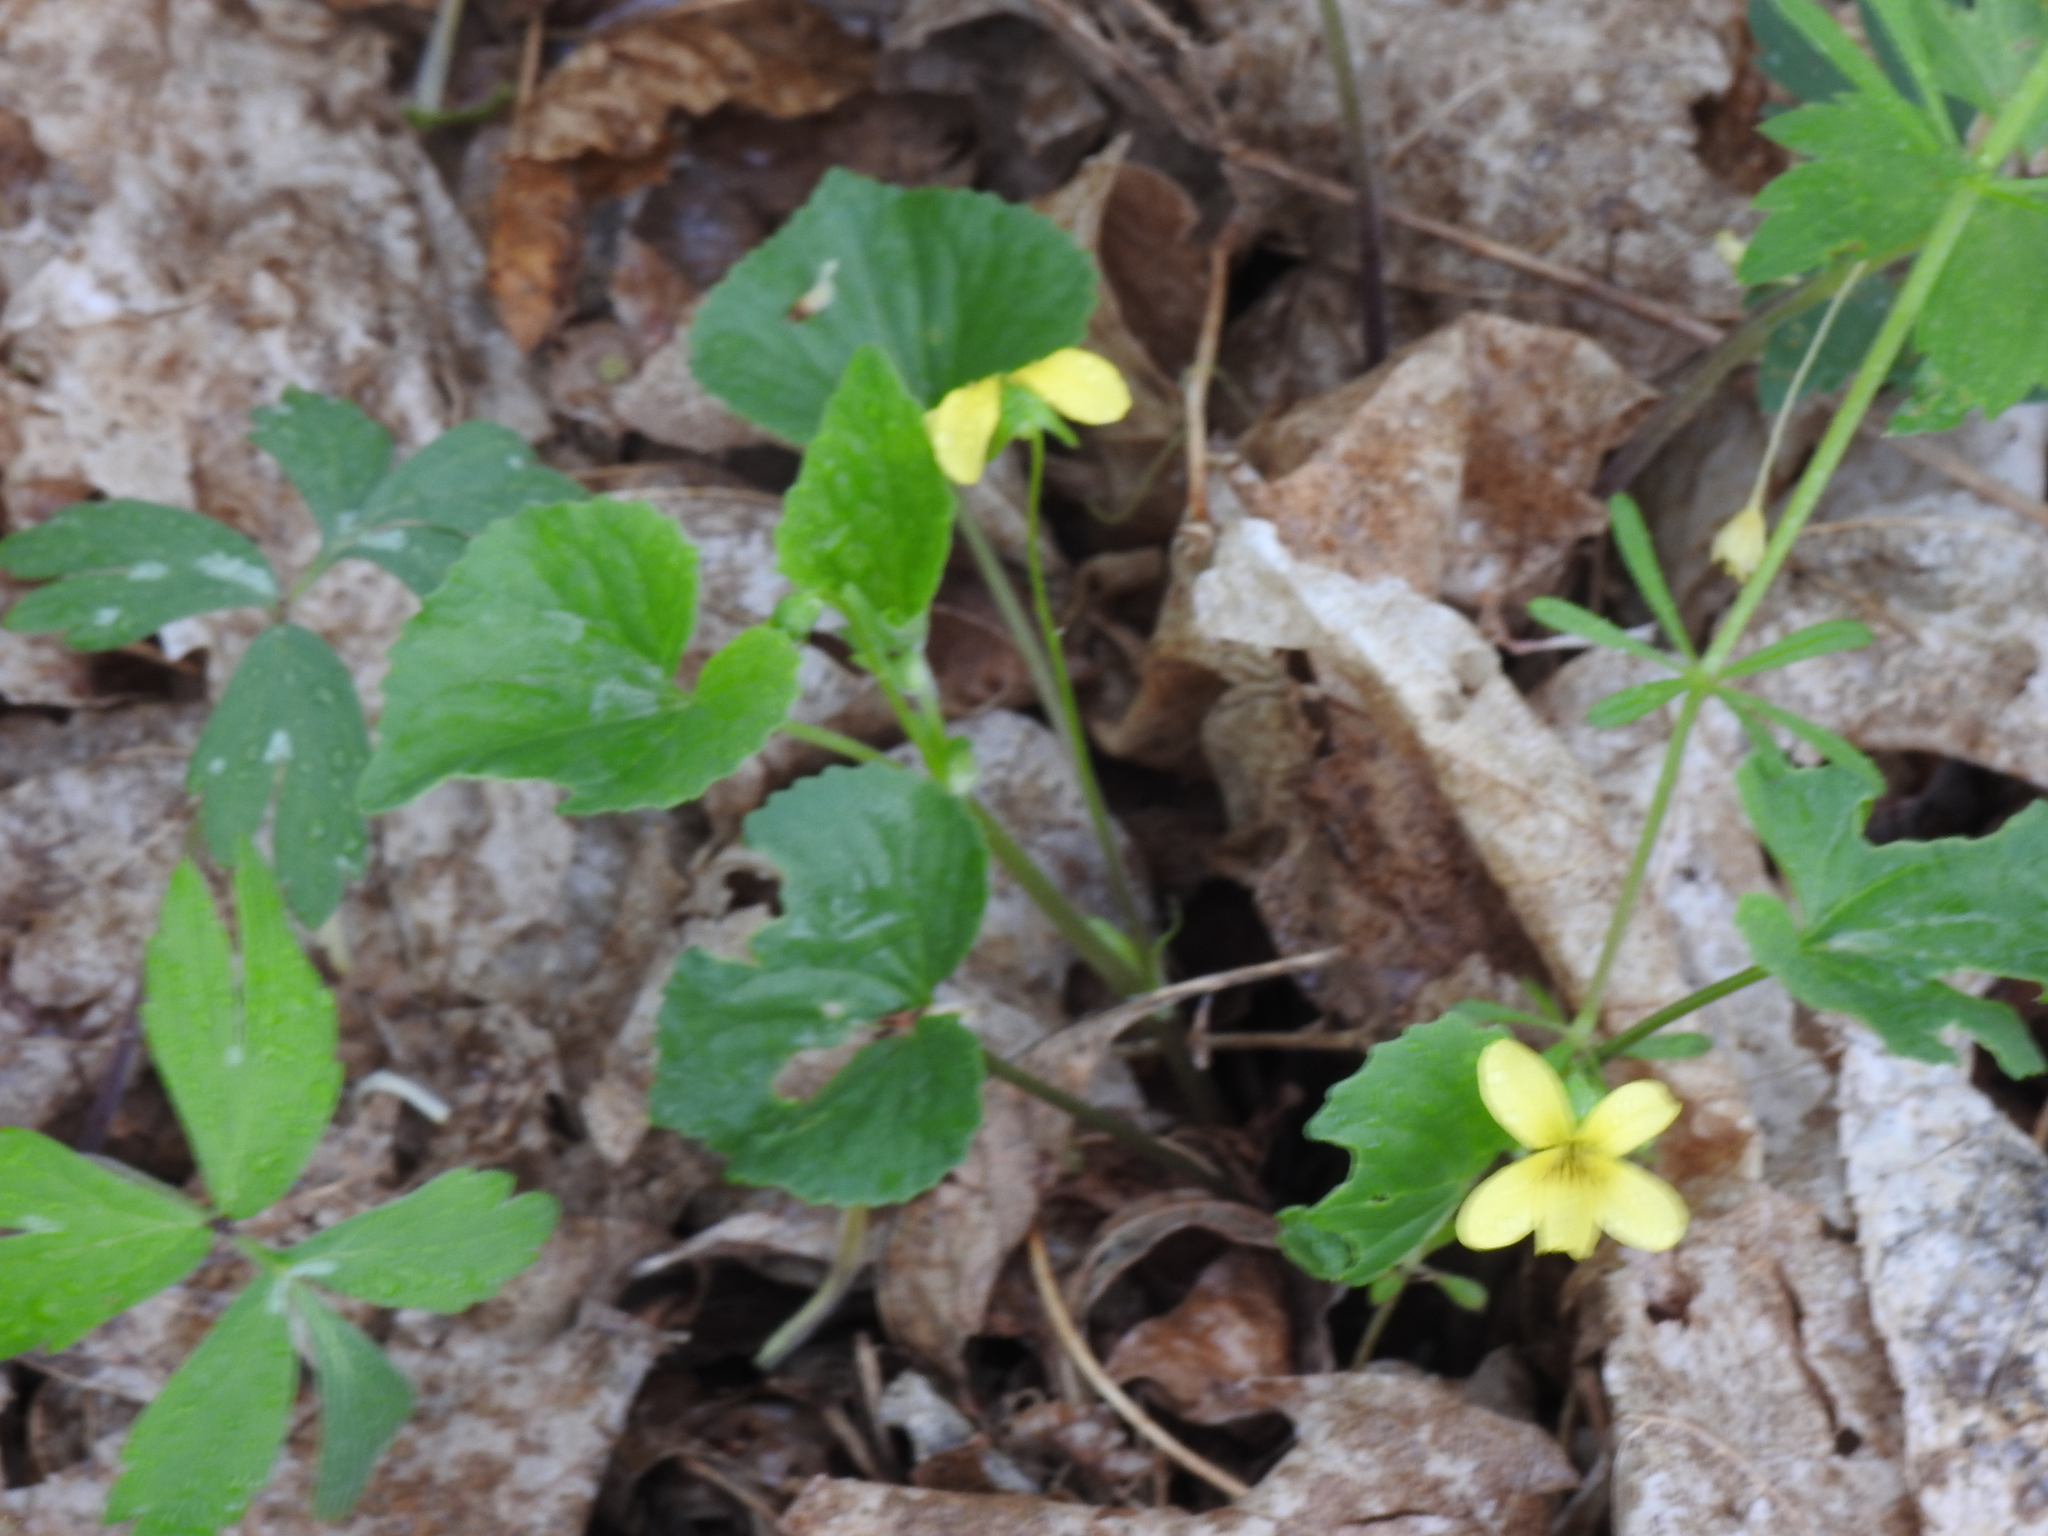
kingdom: Plantae
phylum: Tracheophyta
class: Magnoliopsida
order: Malpighiales
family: Violaceae
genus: Viola
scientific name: Viola eriocarpa
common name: Smooth yellow violet
